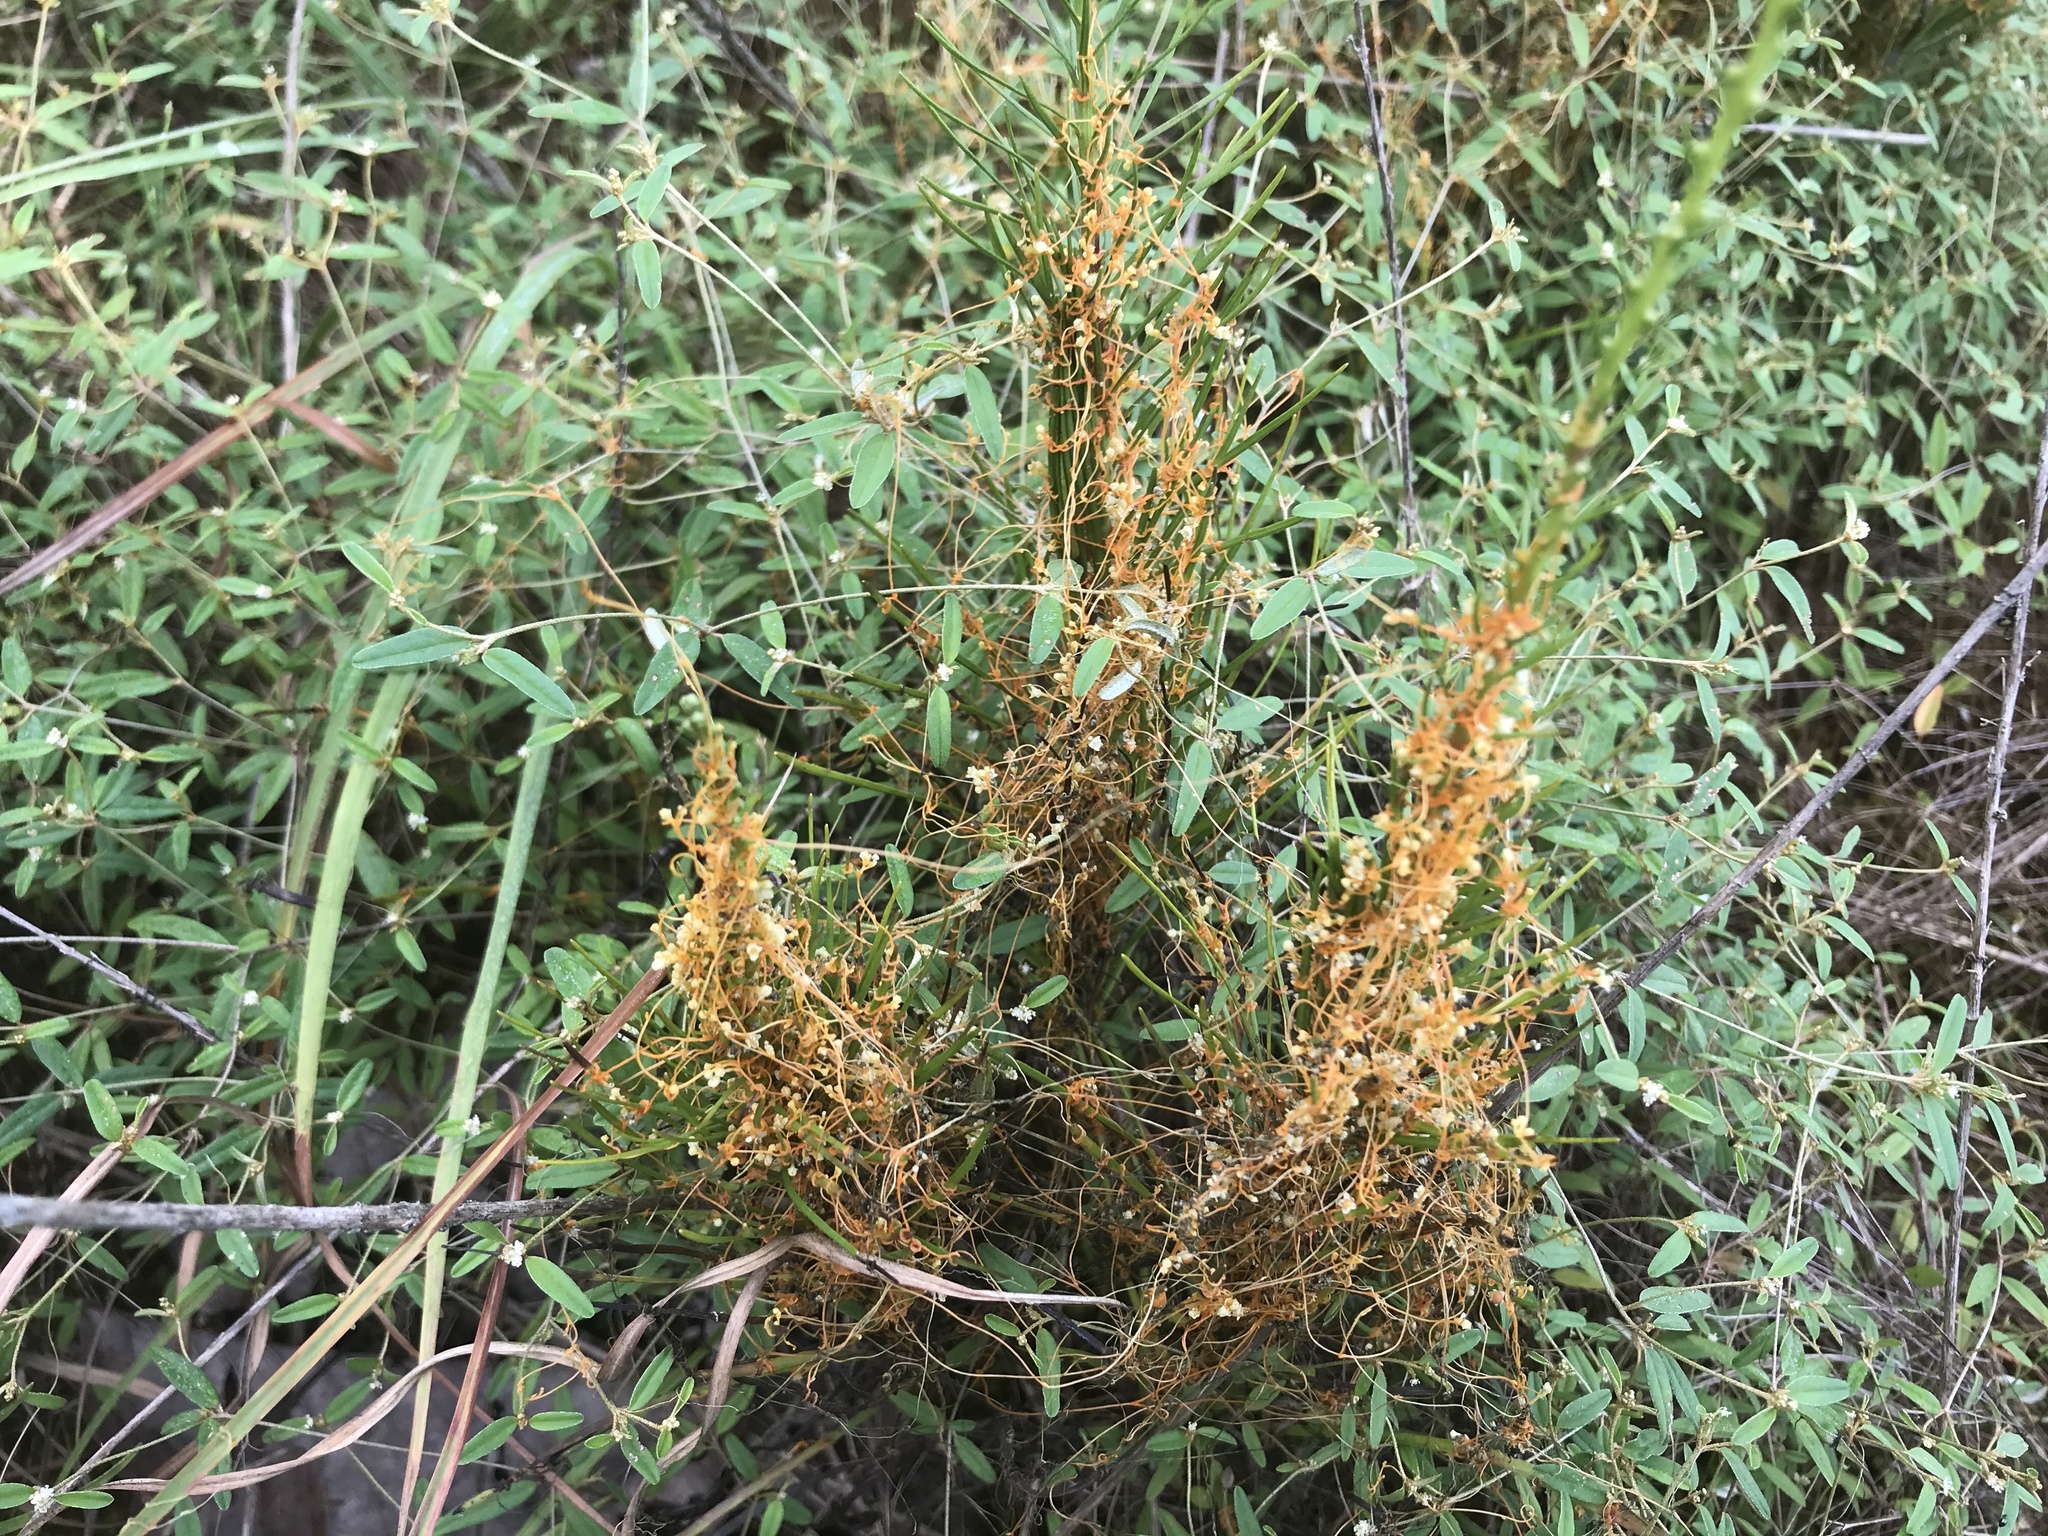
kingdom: Plantae
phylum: Tracheophyta
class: Magnoliopsida
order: Solanales
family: Convolvulaceae
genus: Cuscuta
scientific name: Cuscuta harperi
